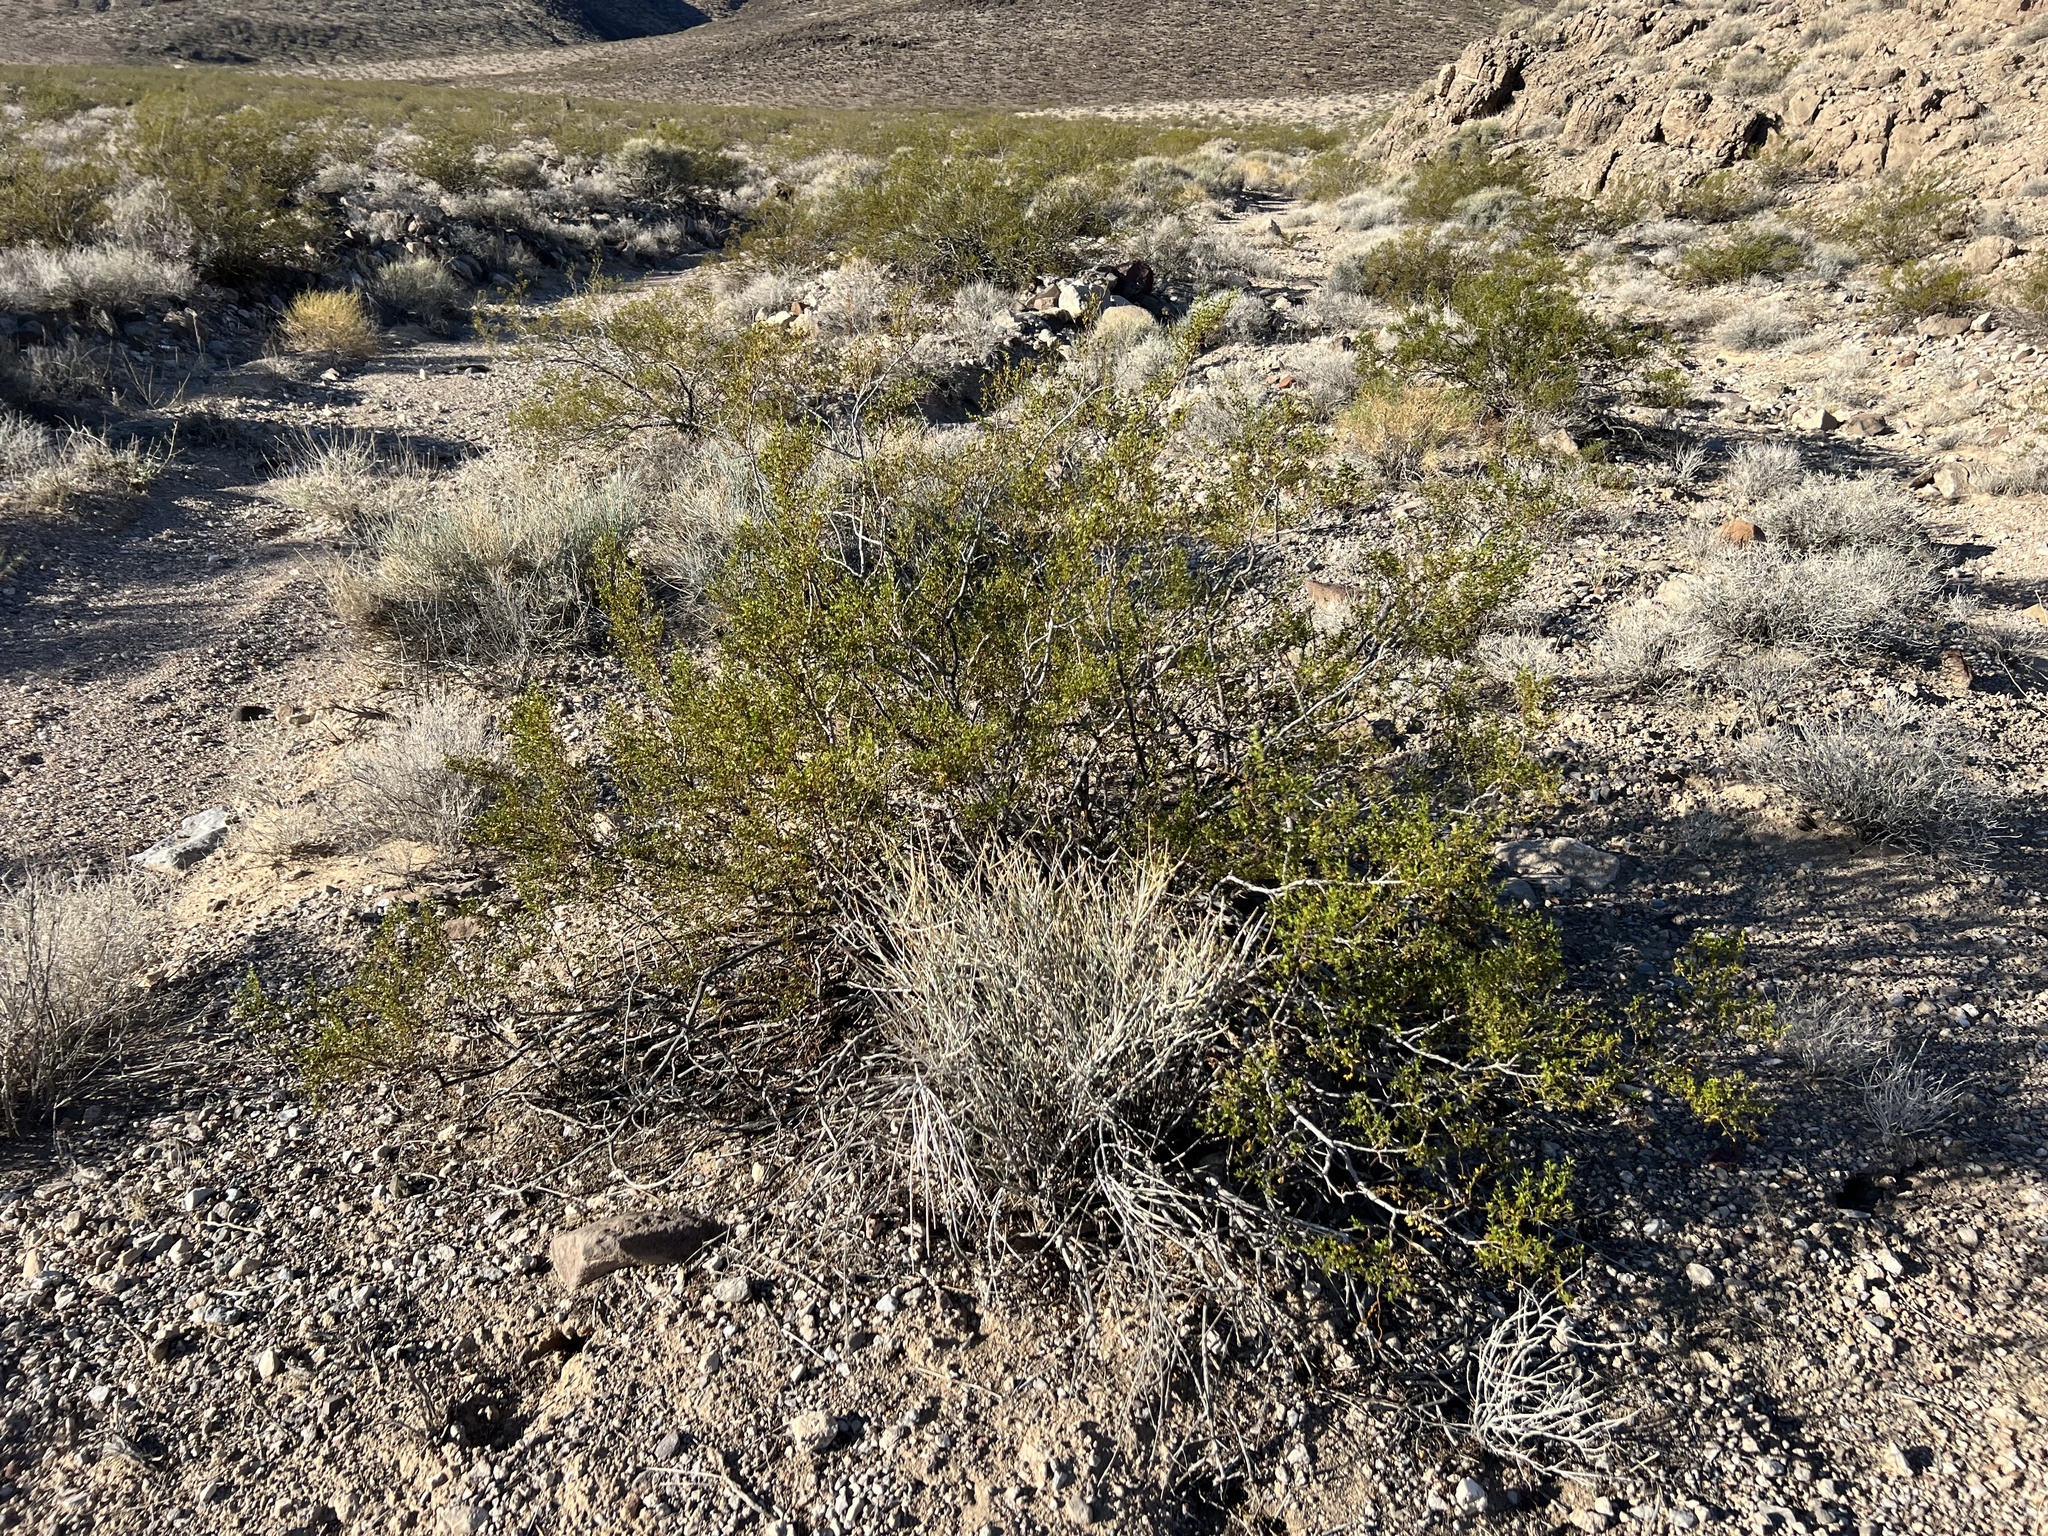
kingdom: Plantae
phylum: Tracheophyta
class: Magnoliopsida
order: Zygophyllales
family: Zygophyllaceae
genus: Larrea
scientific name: Larrea tridentata
